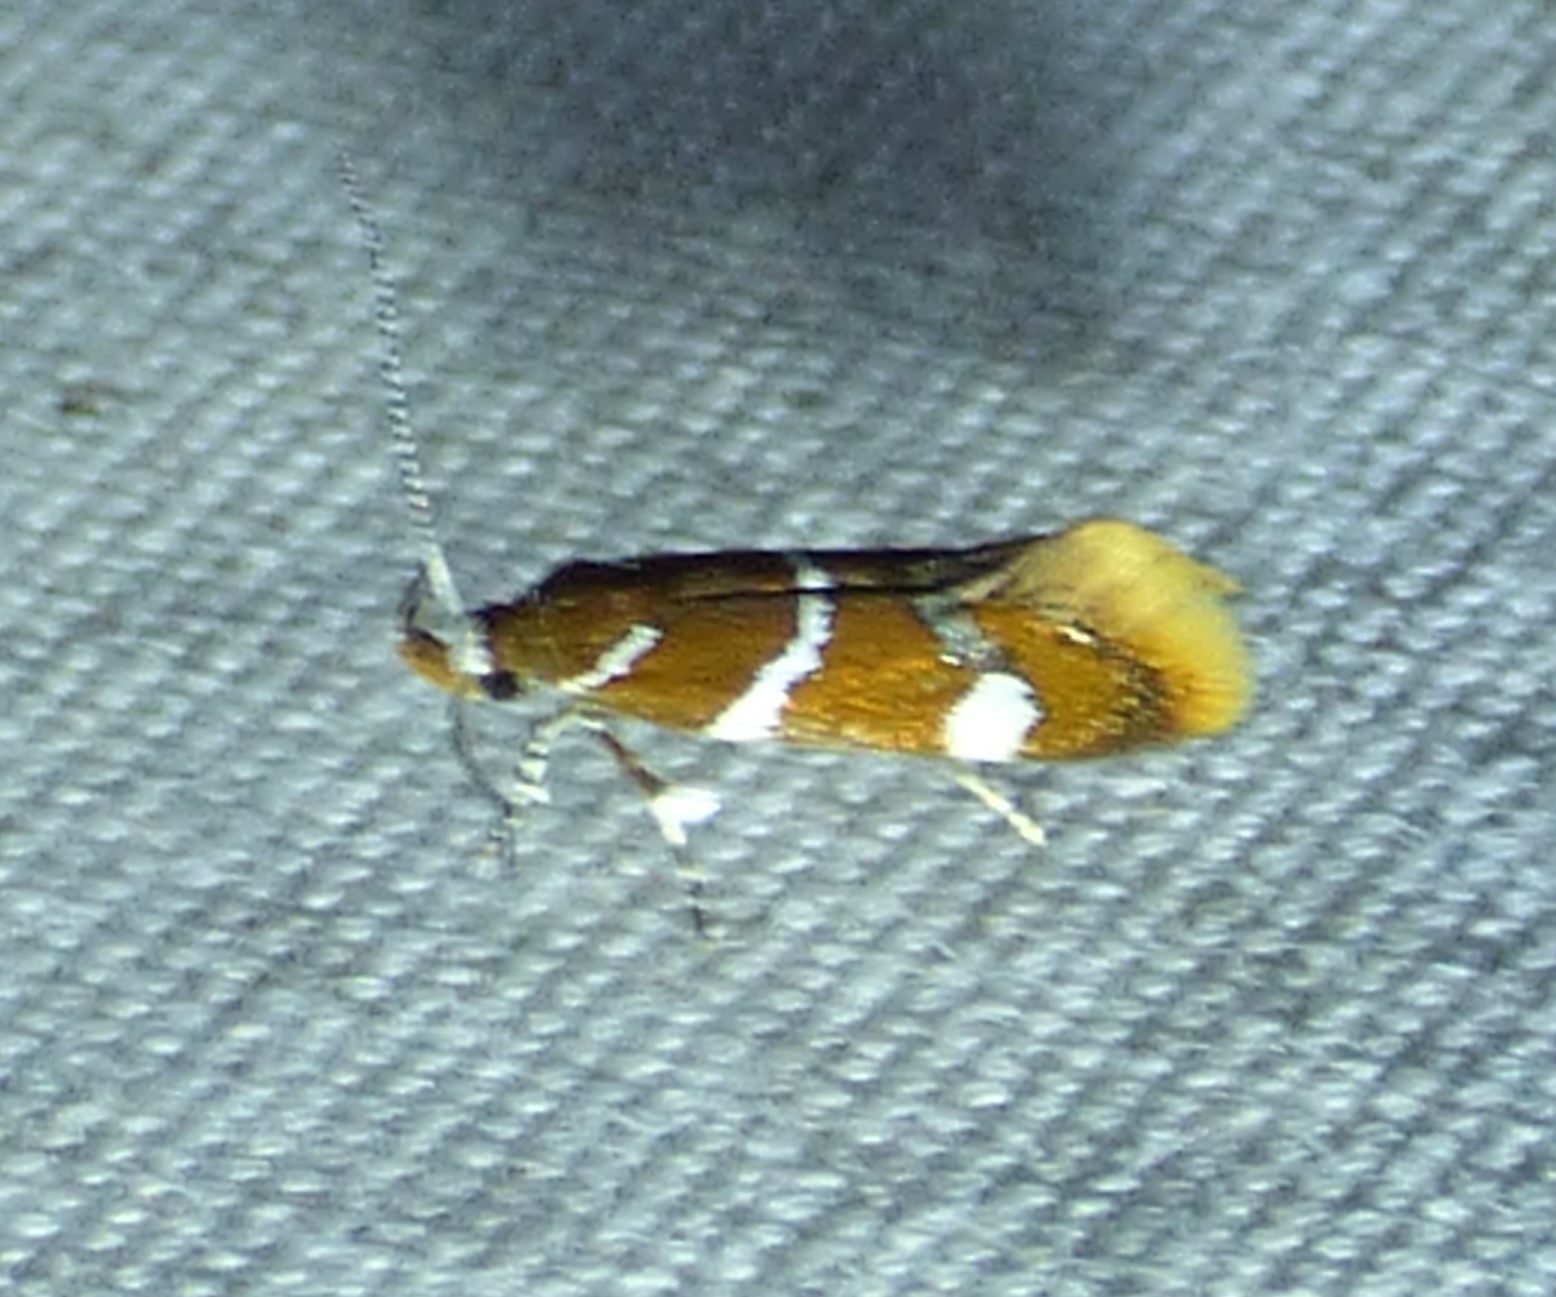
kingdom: Animalia
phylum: Arthropoda
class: Insecta
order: Lepidoptera
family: Oecophoridae
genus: Promalactis
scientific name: Promalactis suzukiella
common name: Moth
